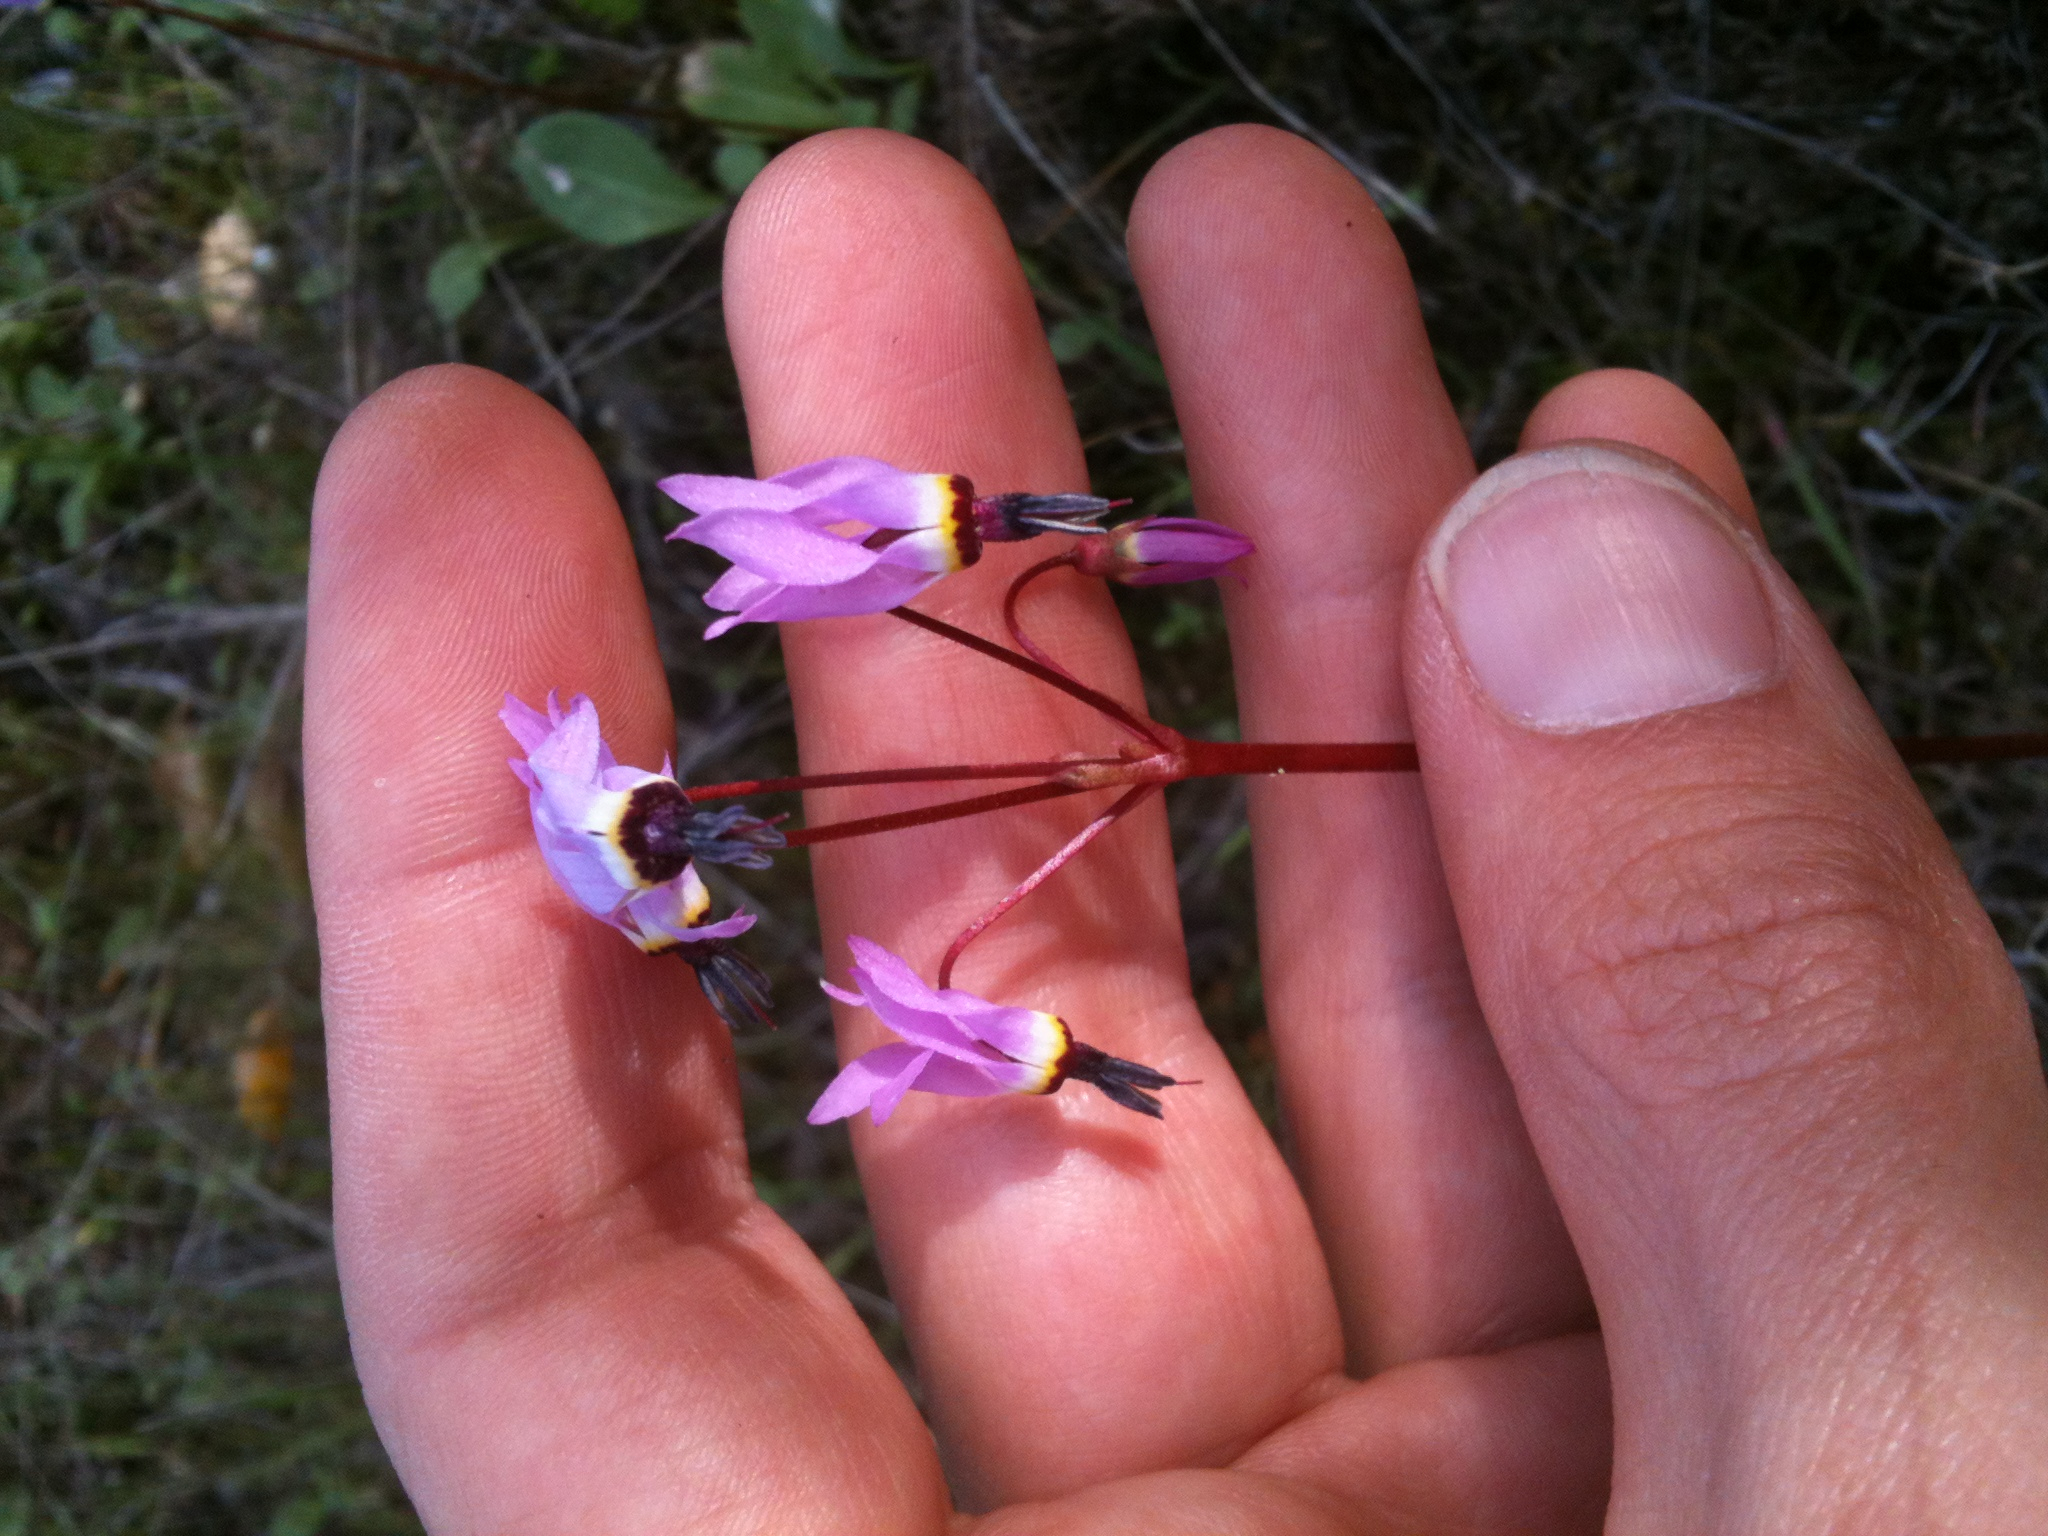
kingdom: Plantae
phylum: Tracheophyta
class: Magnoliopsida
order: Ericales
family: Primulaceae
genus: Dodecatheon
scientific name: Dodecatheon hendersonii
